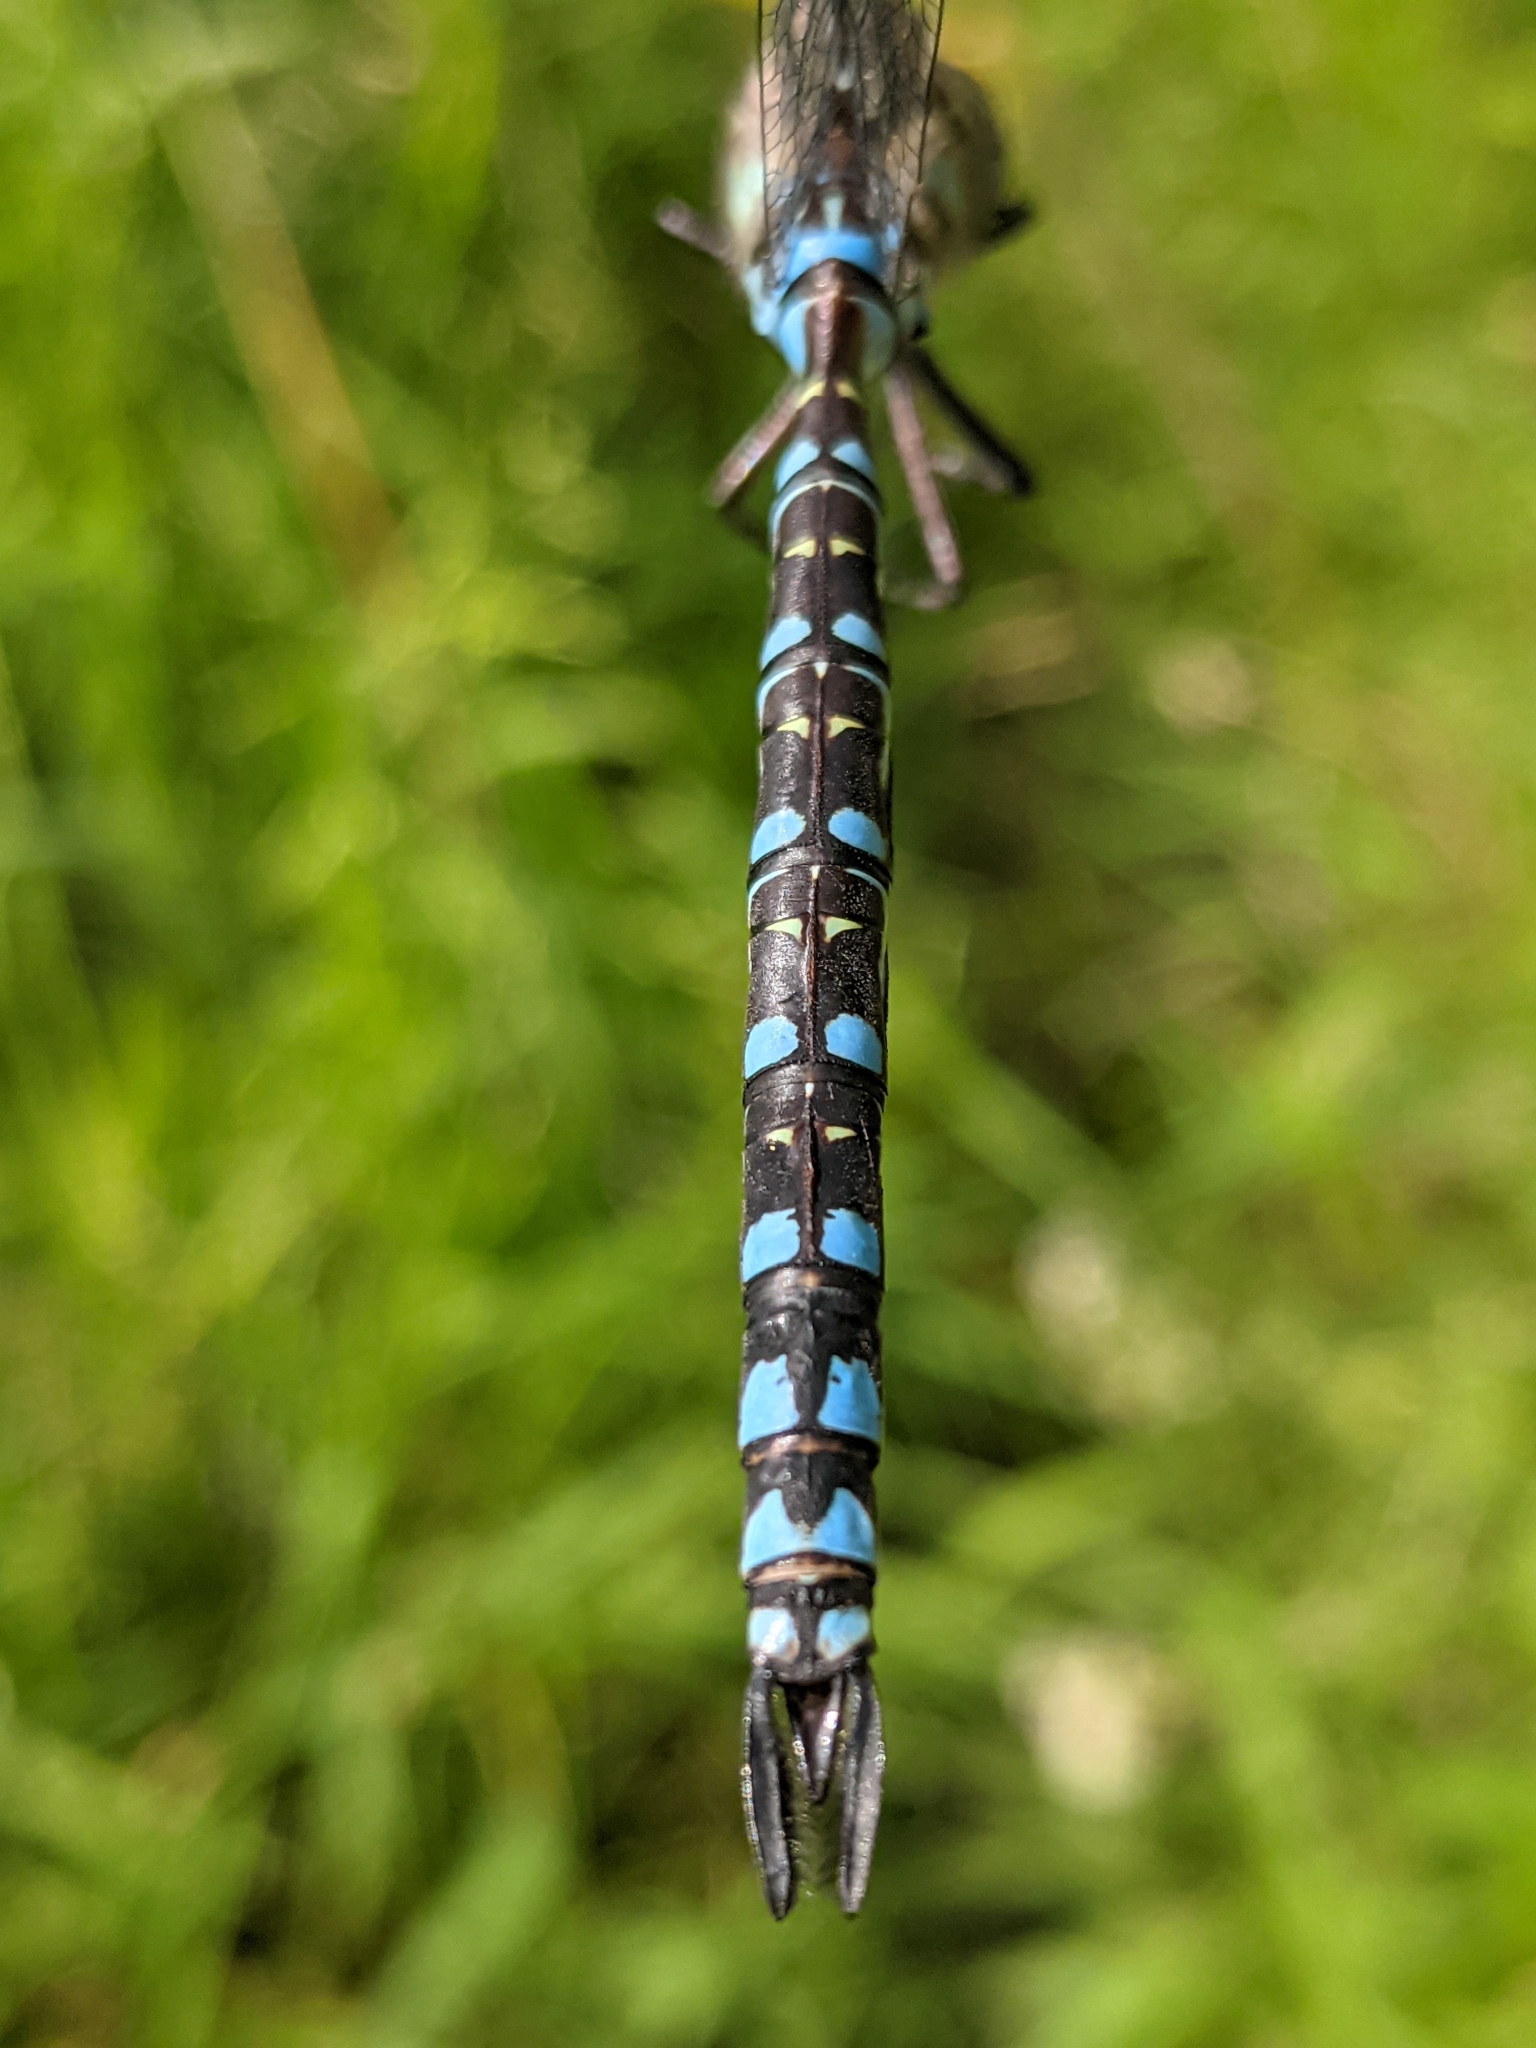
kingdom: Animalia
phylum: Arthropoda
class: Insecta
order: Odonata
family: Aeshnidae
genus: Aeshna
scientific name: Aeshna verticalis
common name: Green-striped darner
